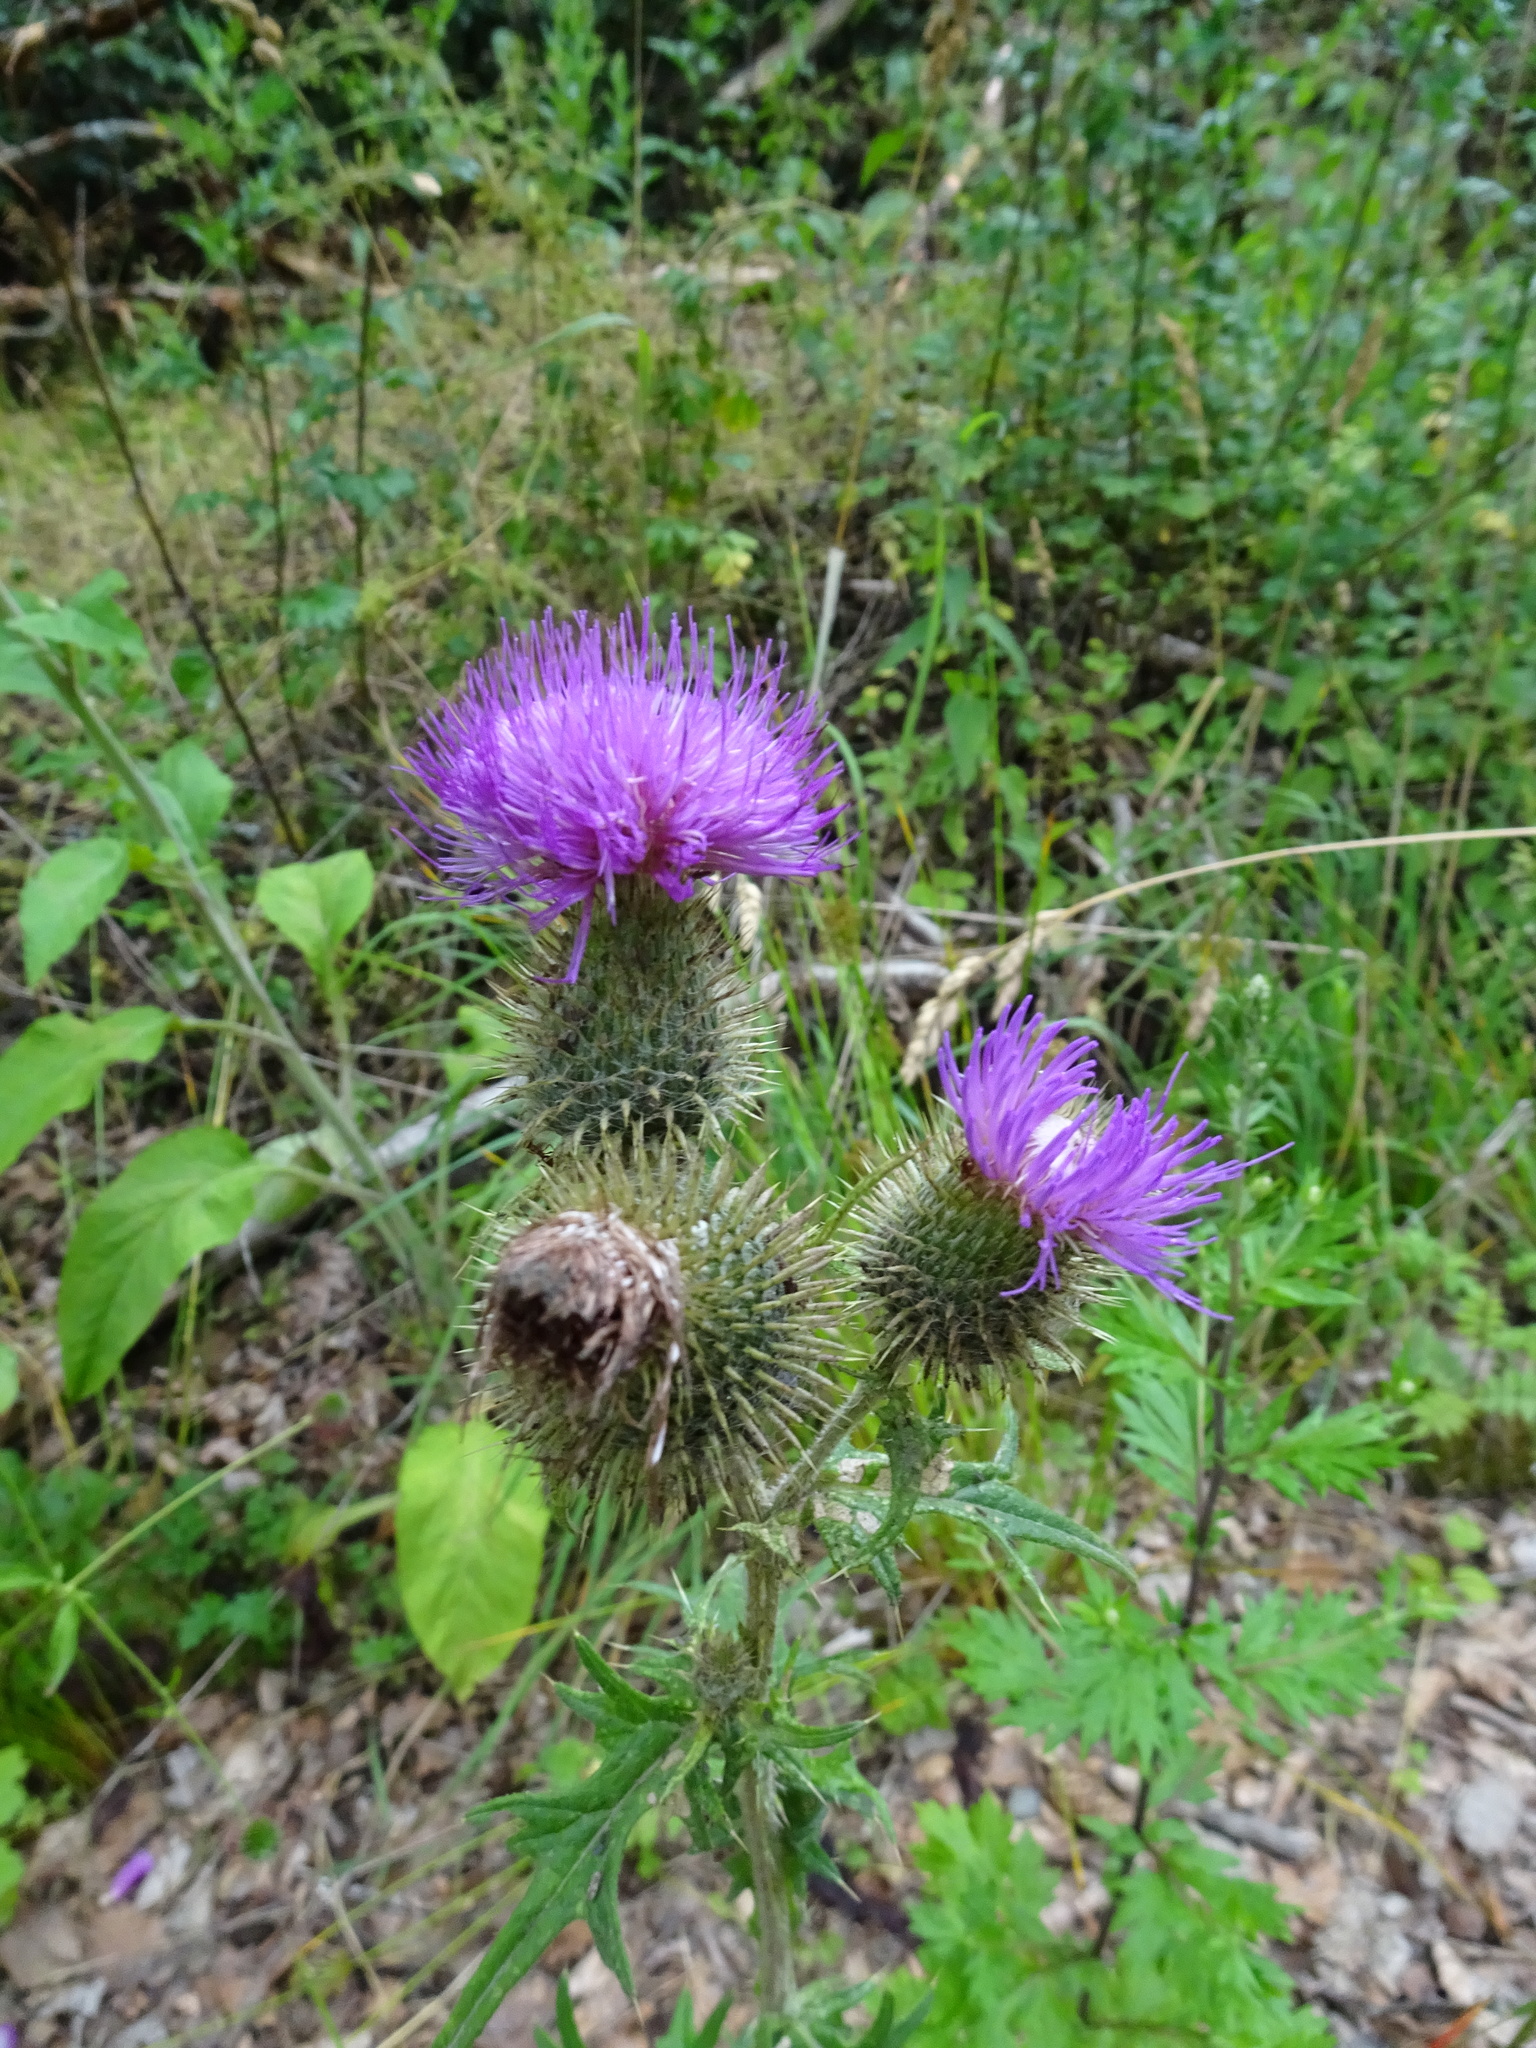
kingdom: Plantae
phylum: Tracheophyta
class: Magnoliopsida
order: Asterales
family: Asteraceae
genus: Cirsium
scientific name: Cirsium vulgare
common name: Bull thistle
